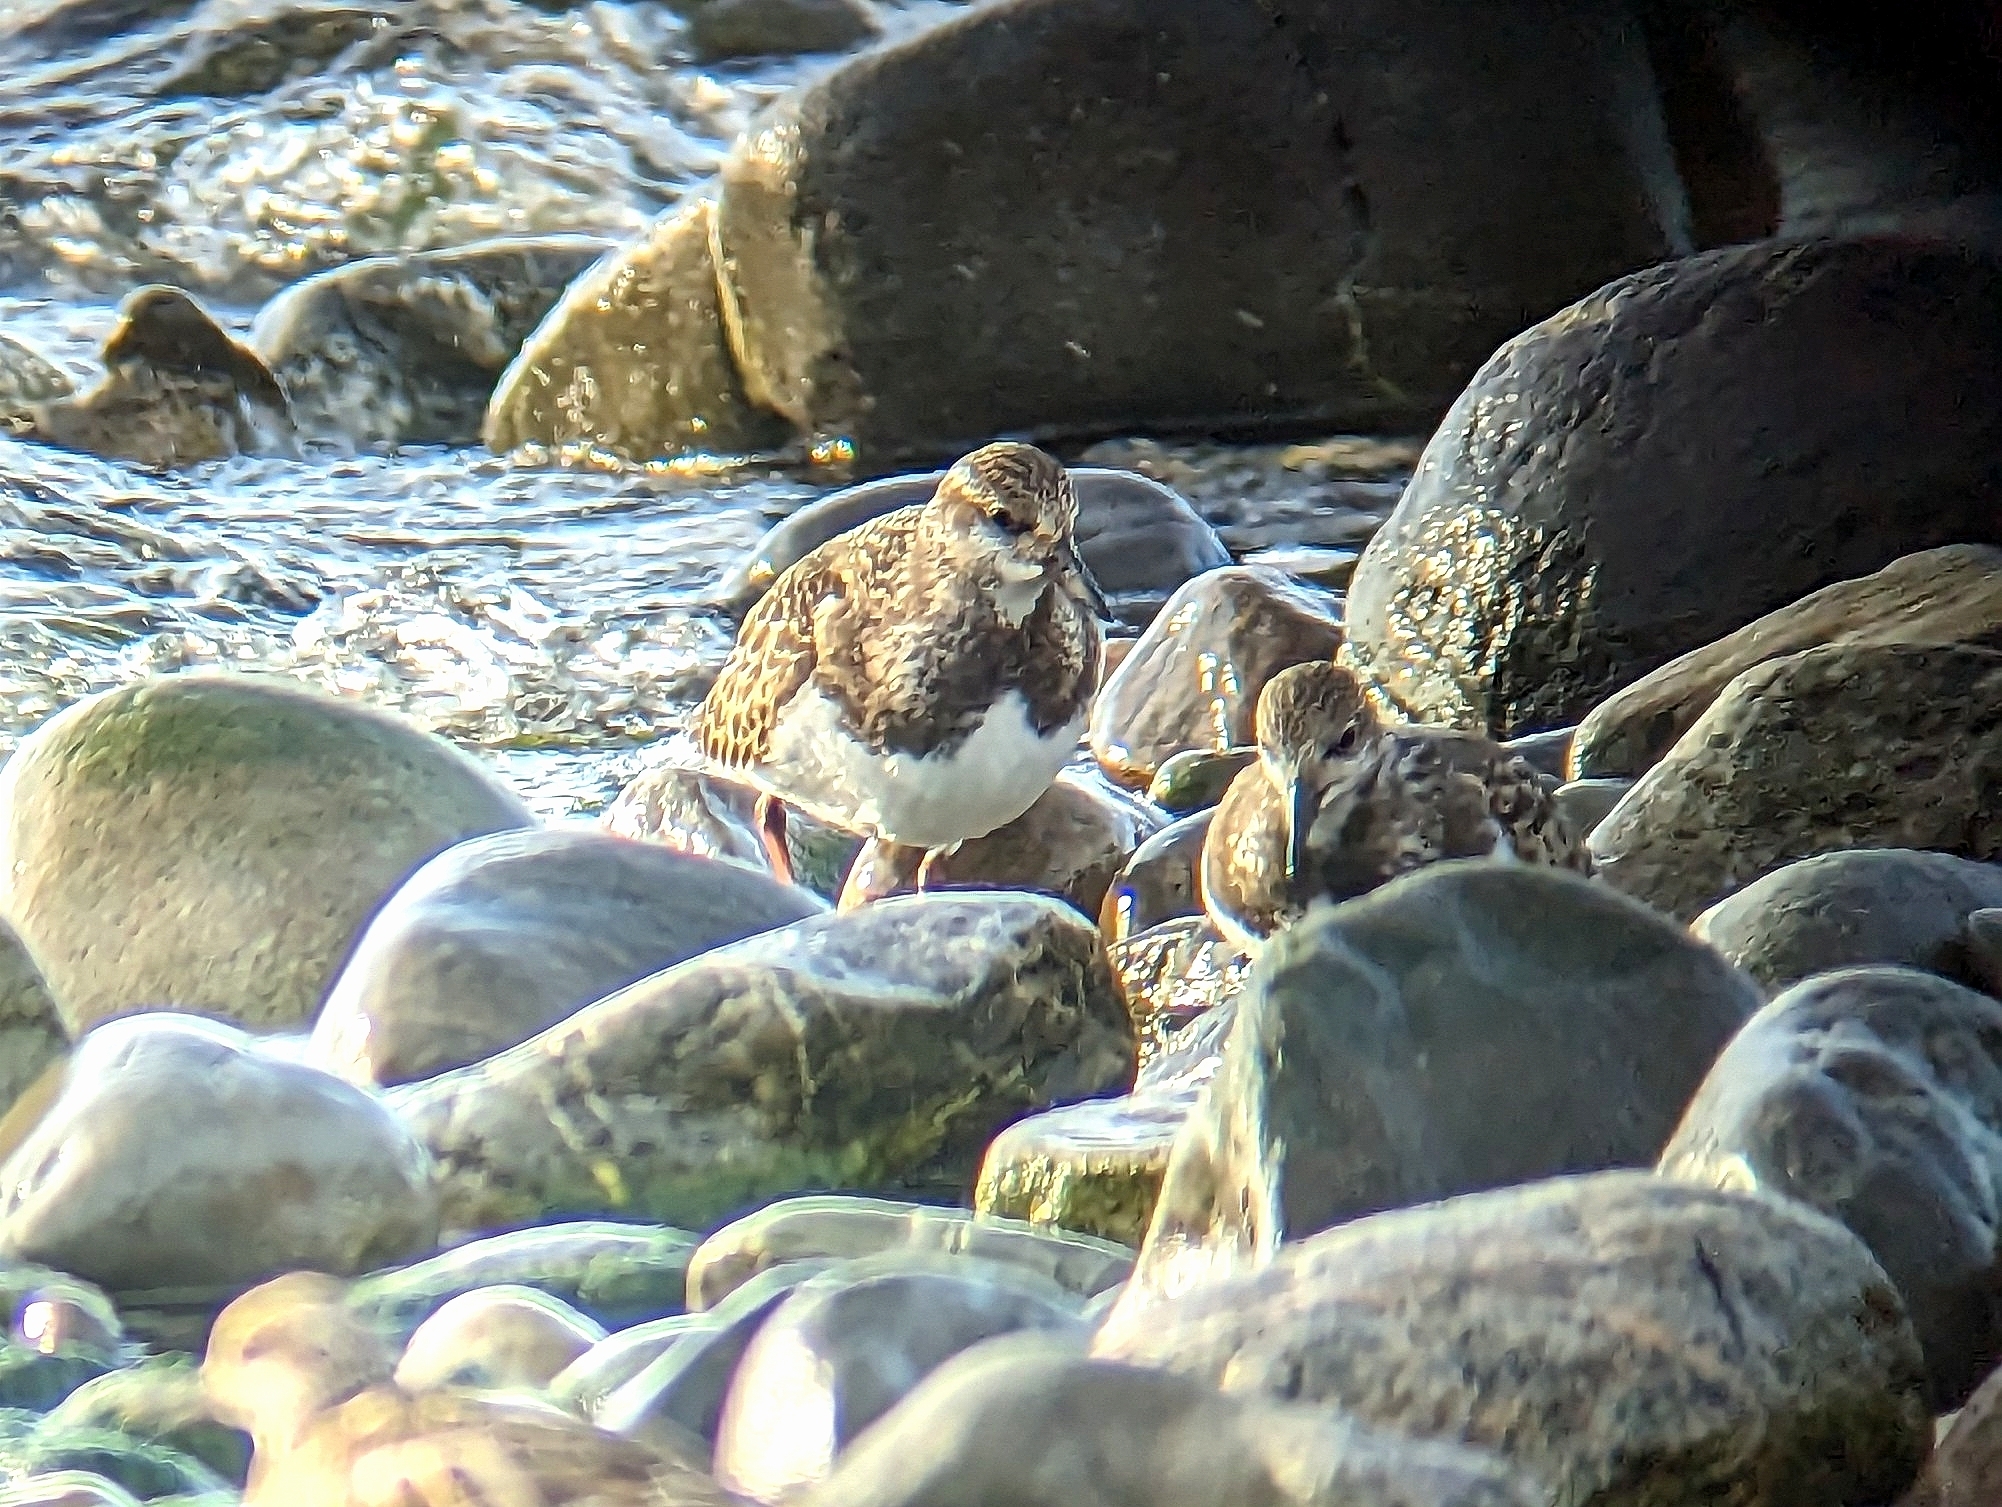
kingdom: Animalia
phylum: Chordata
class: Aves
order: Charadriiformes
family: Scolopacidae
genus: Arenaria
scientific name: Arenaria interpres
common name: Ruddy turnstone
